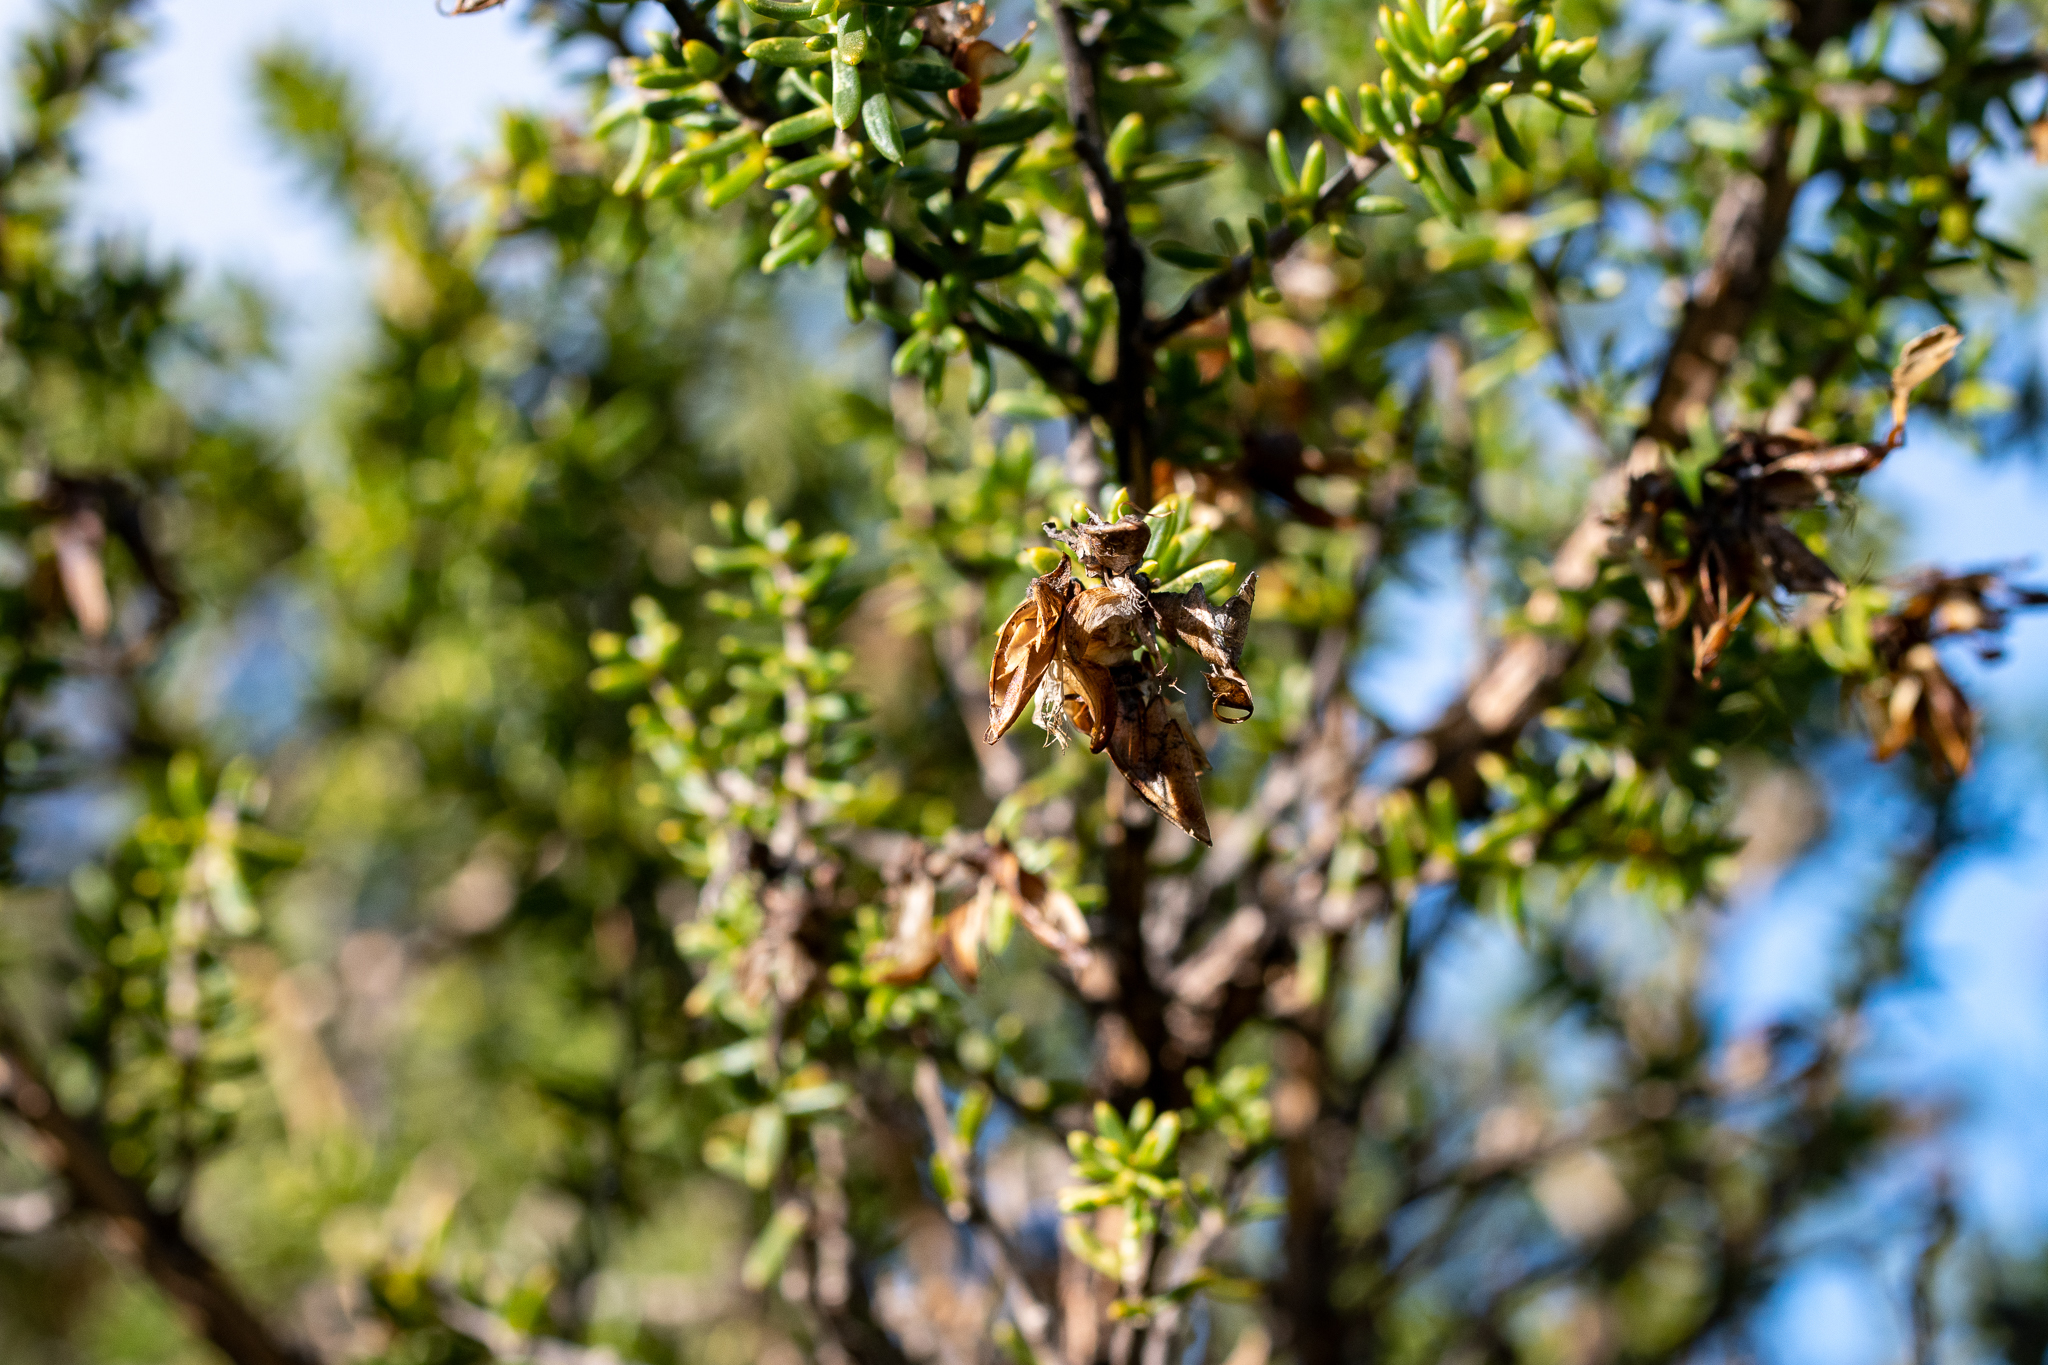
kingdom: Plantae
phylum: Tracheophyta
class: Magnoliopsida
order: Fabales
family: Fabaceae
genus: Aspalathus
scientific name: Aspalathus carnosa
